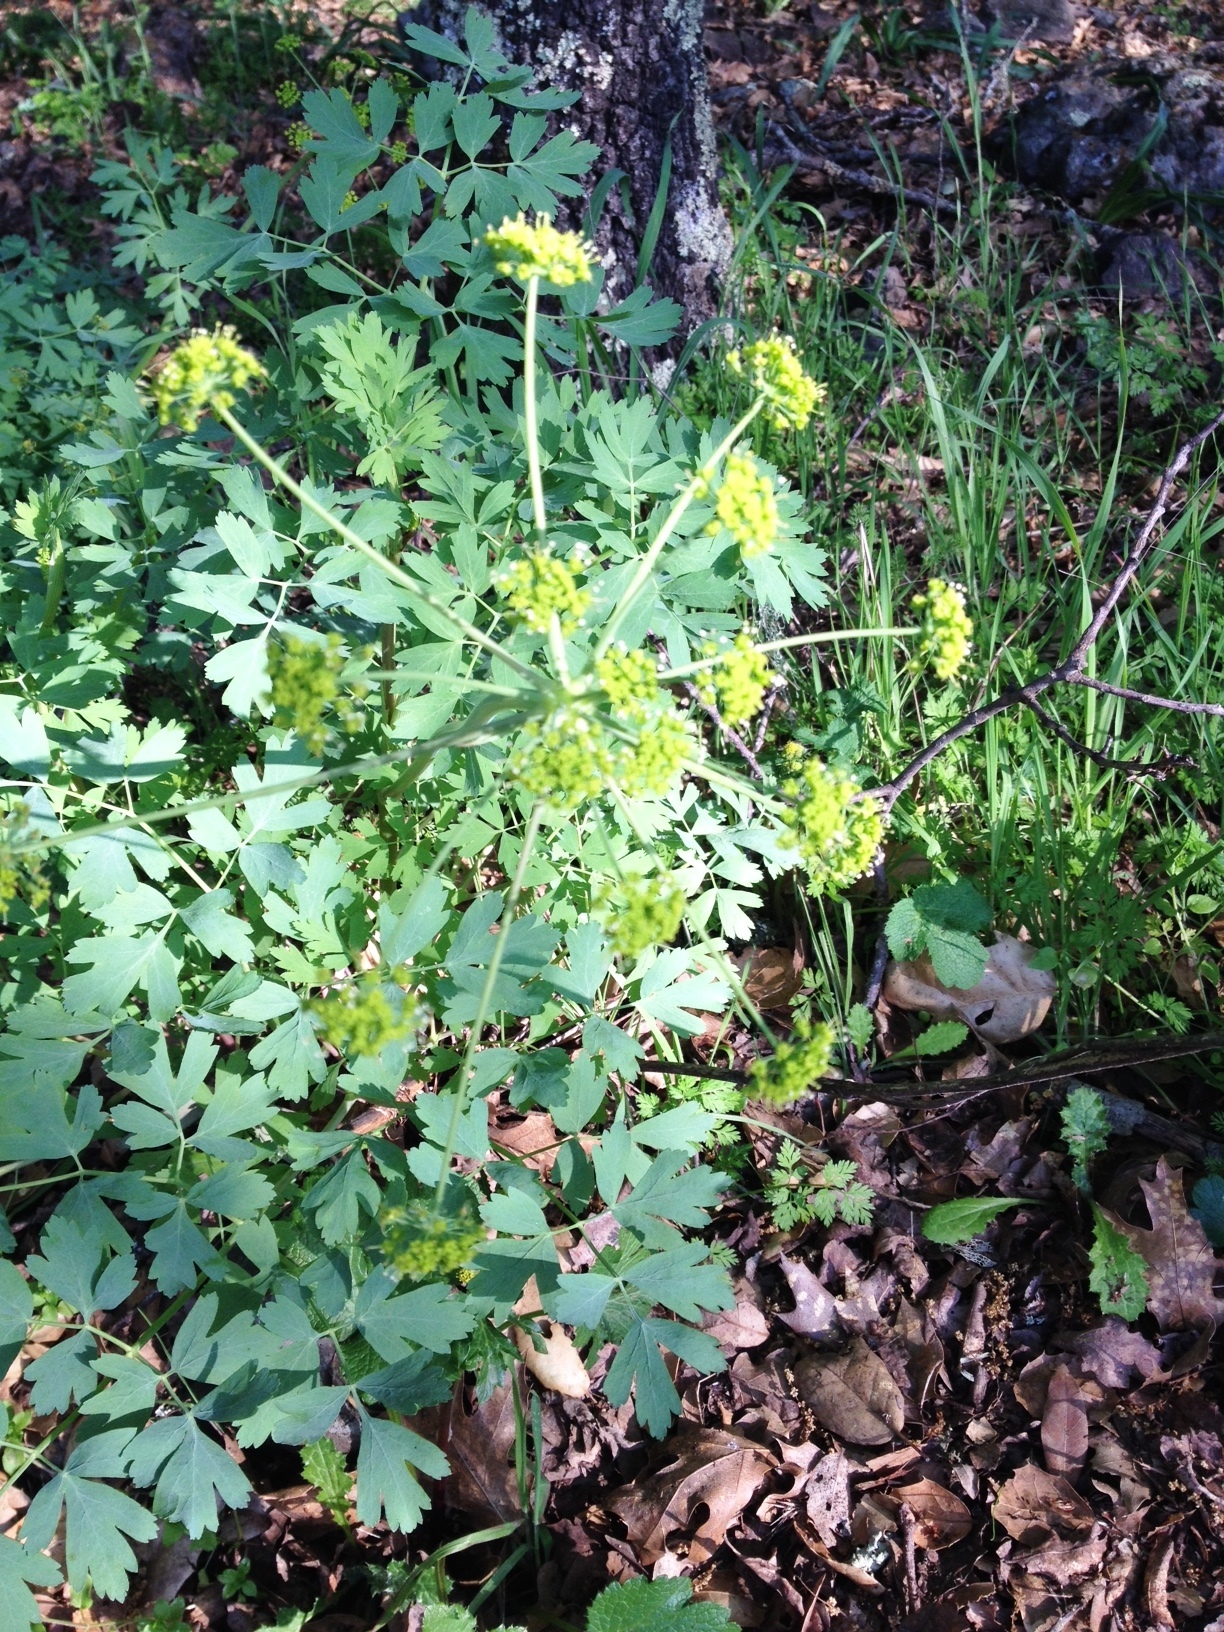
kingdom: Plantae
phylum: Tracheophyta
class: Magnoliopsida
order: Apiales
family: Apiaceae
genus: Lomatium
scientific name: Lomatium californicum
